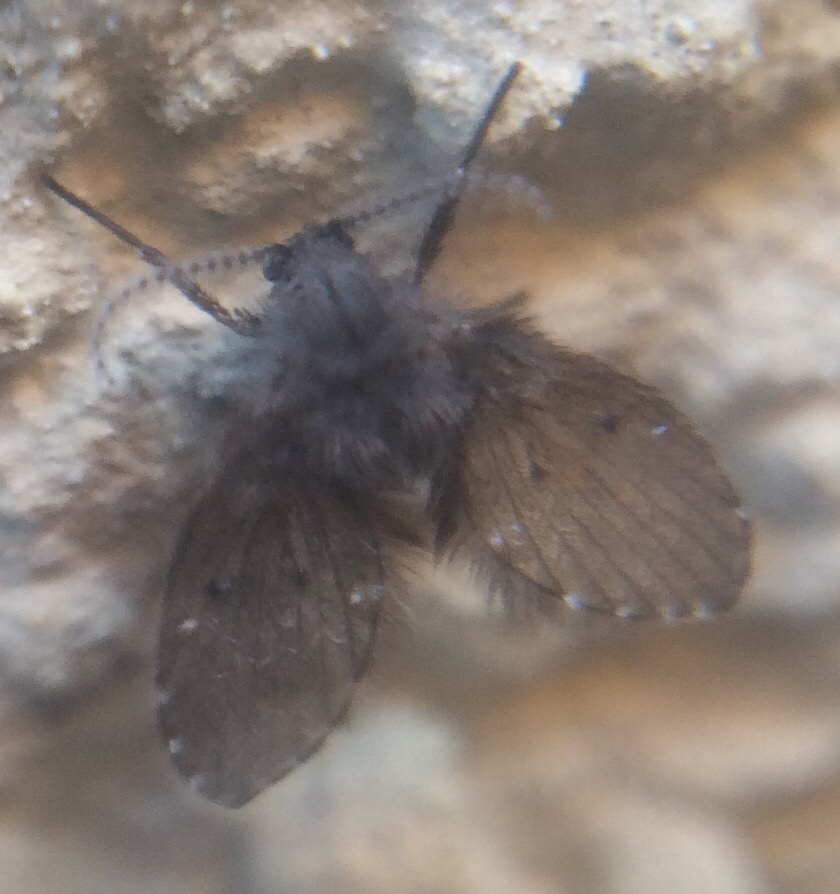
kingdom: Animalia
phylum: Arthropoda
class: Insecta
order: Diptera
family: Psychodidae
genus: Clogmia
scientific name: Clogmia albipunctatus
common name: White-spotted moth fly
